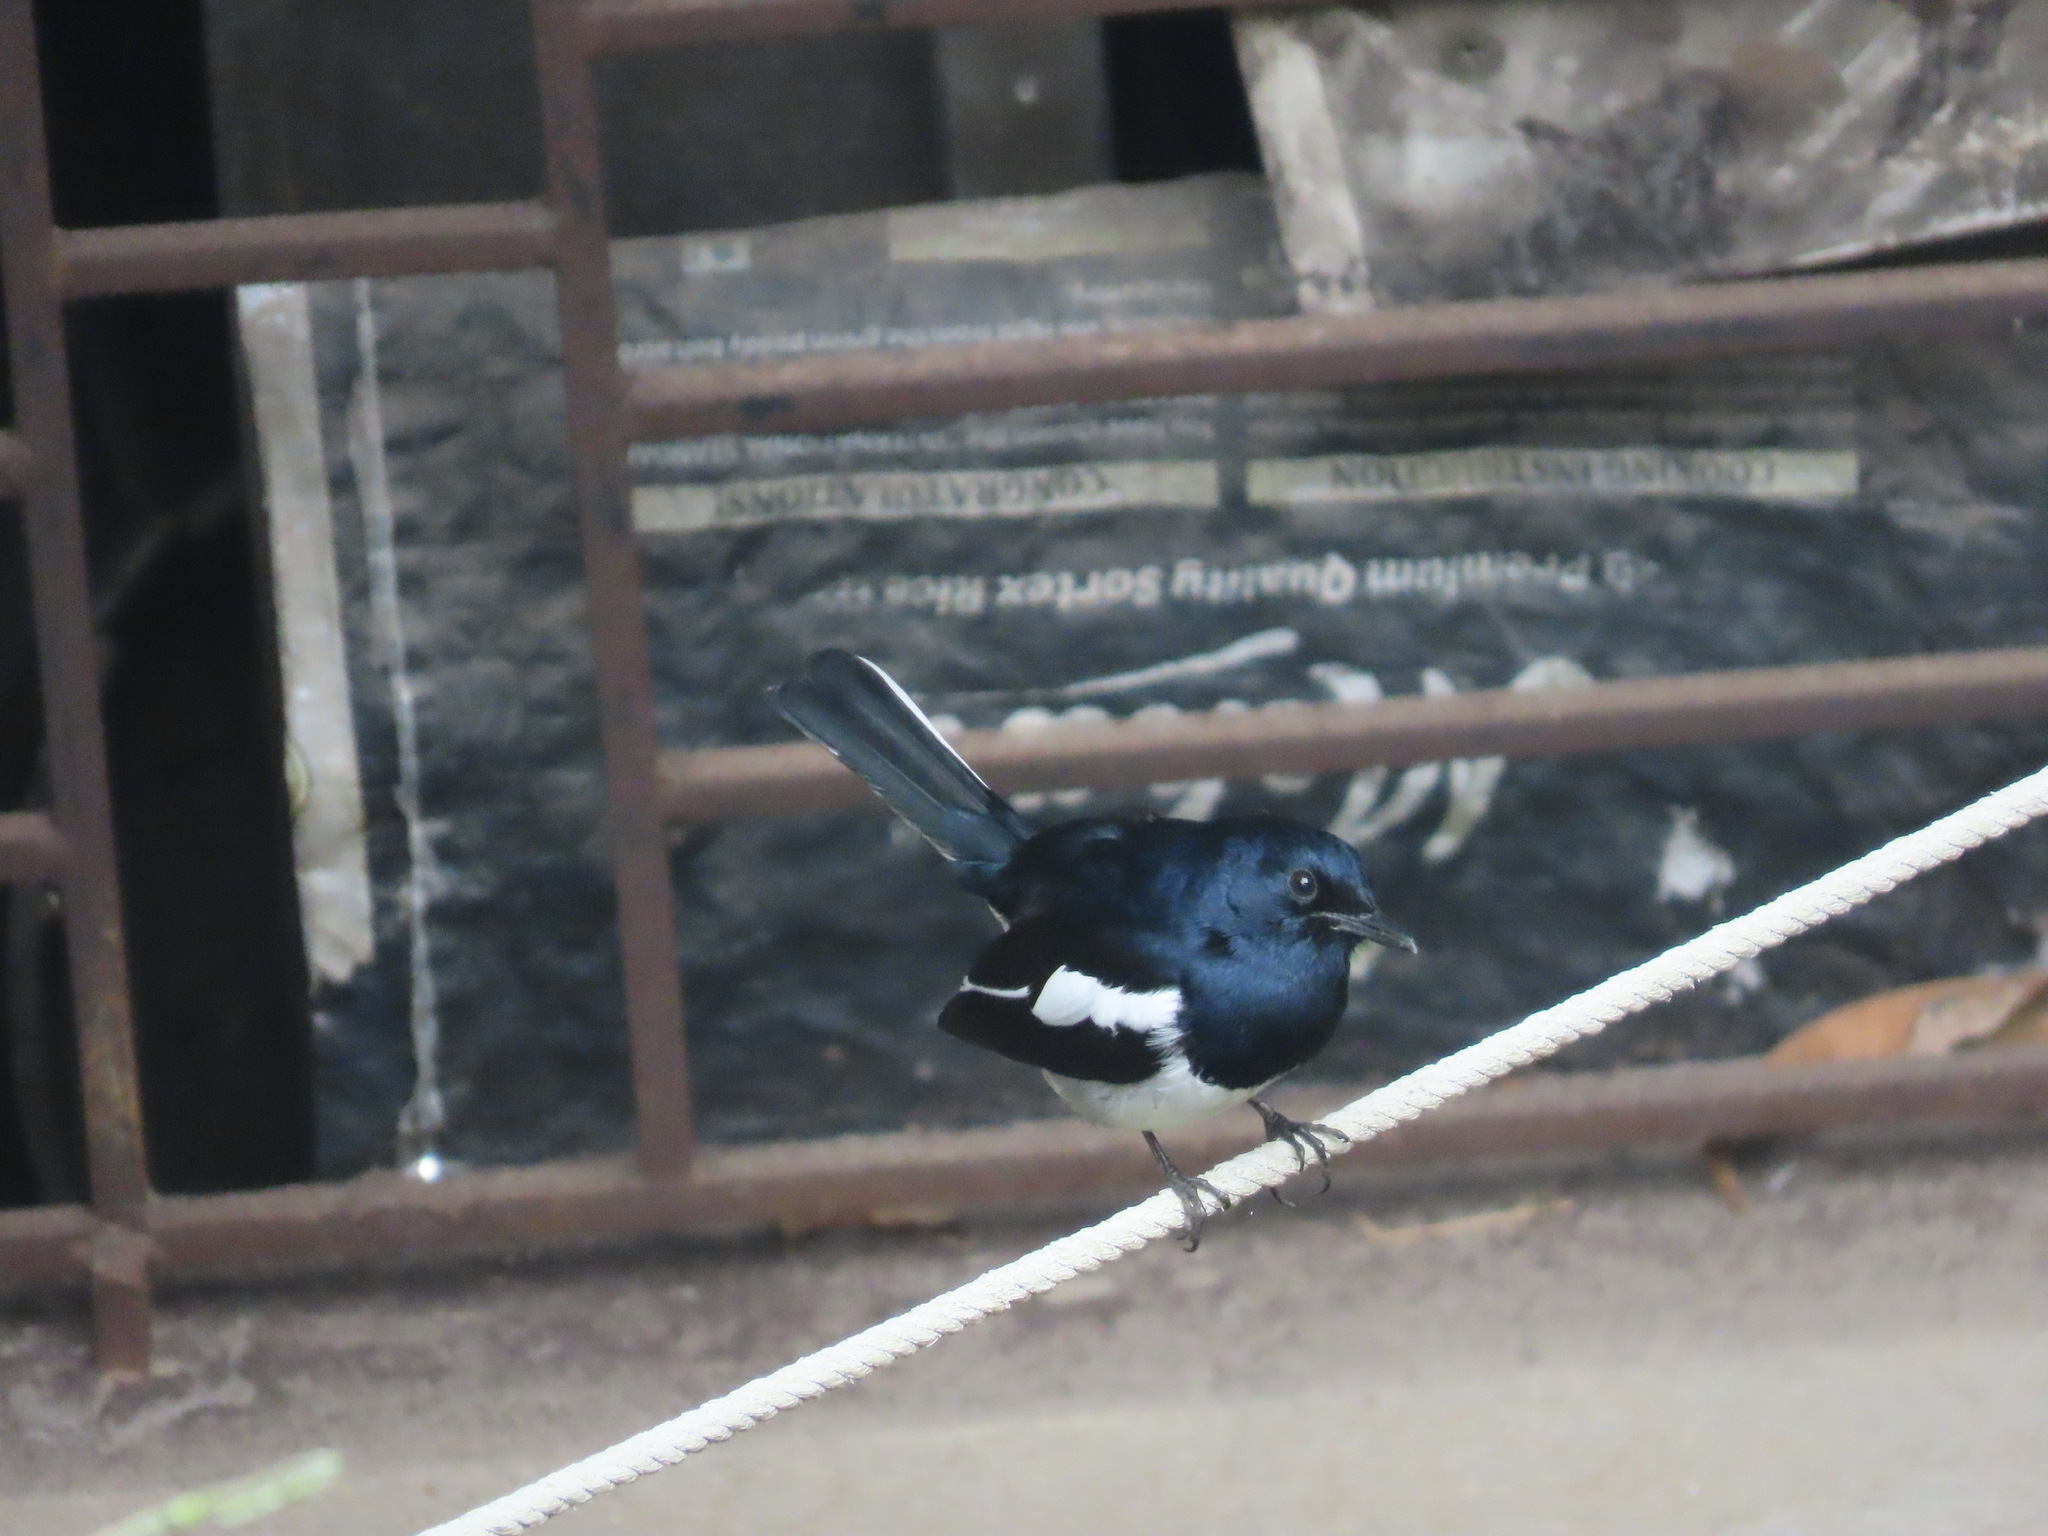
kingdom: Animalia
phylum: Chordata
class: Aves
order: Passeriformes
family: Muscicapidae
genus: Copsychus
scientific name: Copsychus saularis
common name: Oriental magpie-robin
